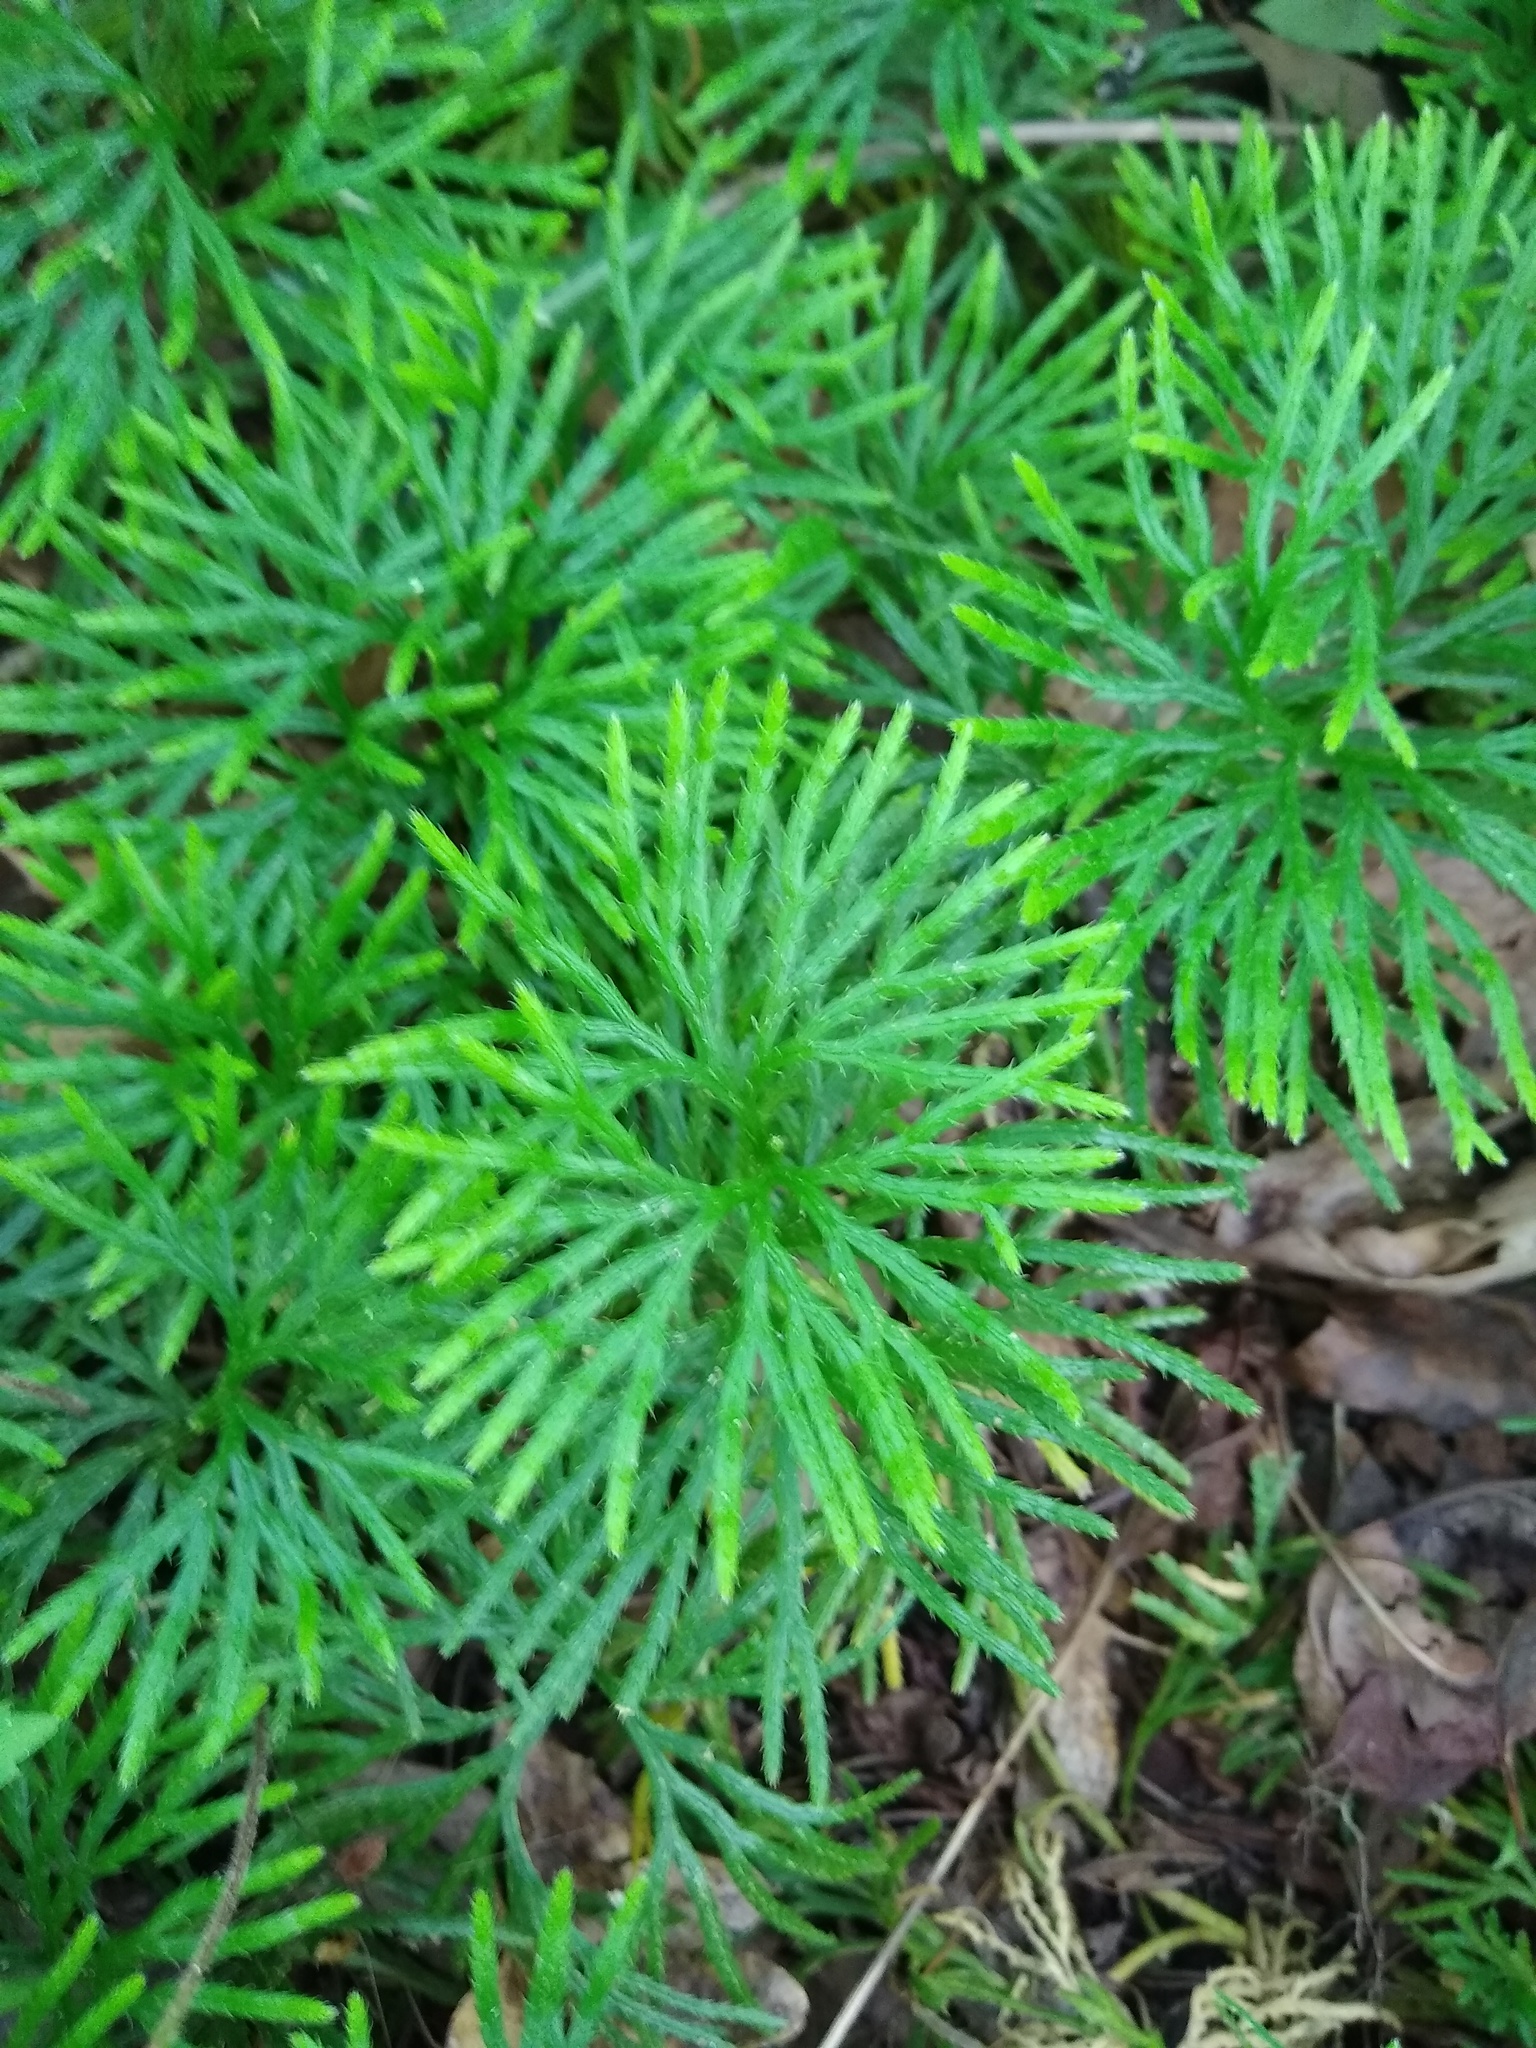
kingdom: Plantae
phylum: Tracheophyta
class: Lycopodiopsida
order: Lycopodiales
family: Lycopodiaceae
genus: Diphasiastrum
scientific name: Diphasiastrum digitatum
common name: Southern running-pine
